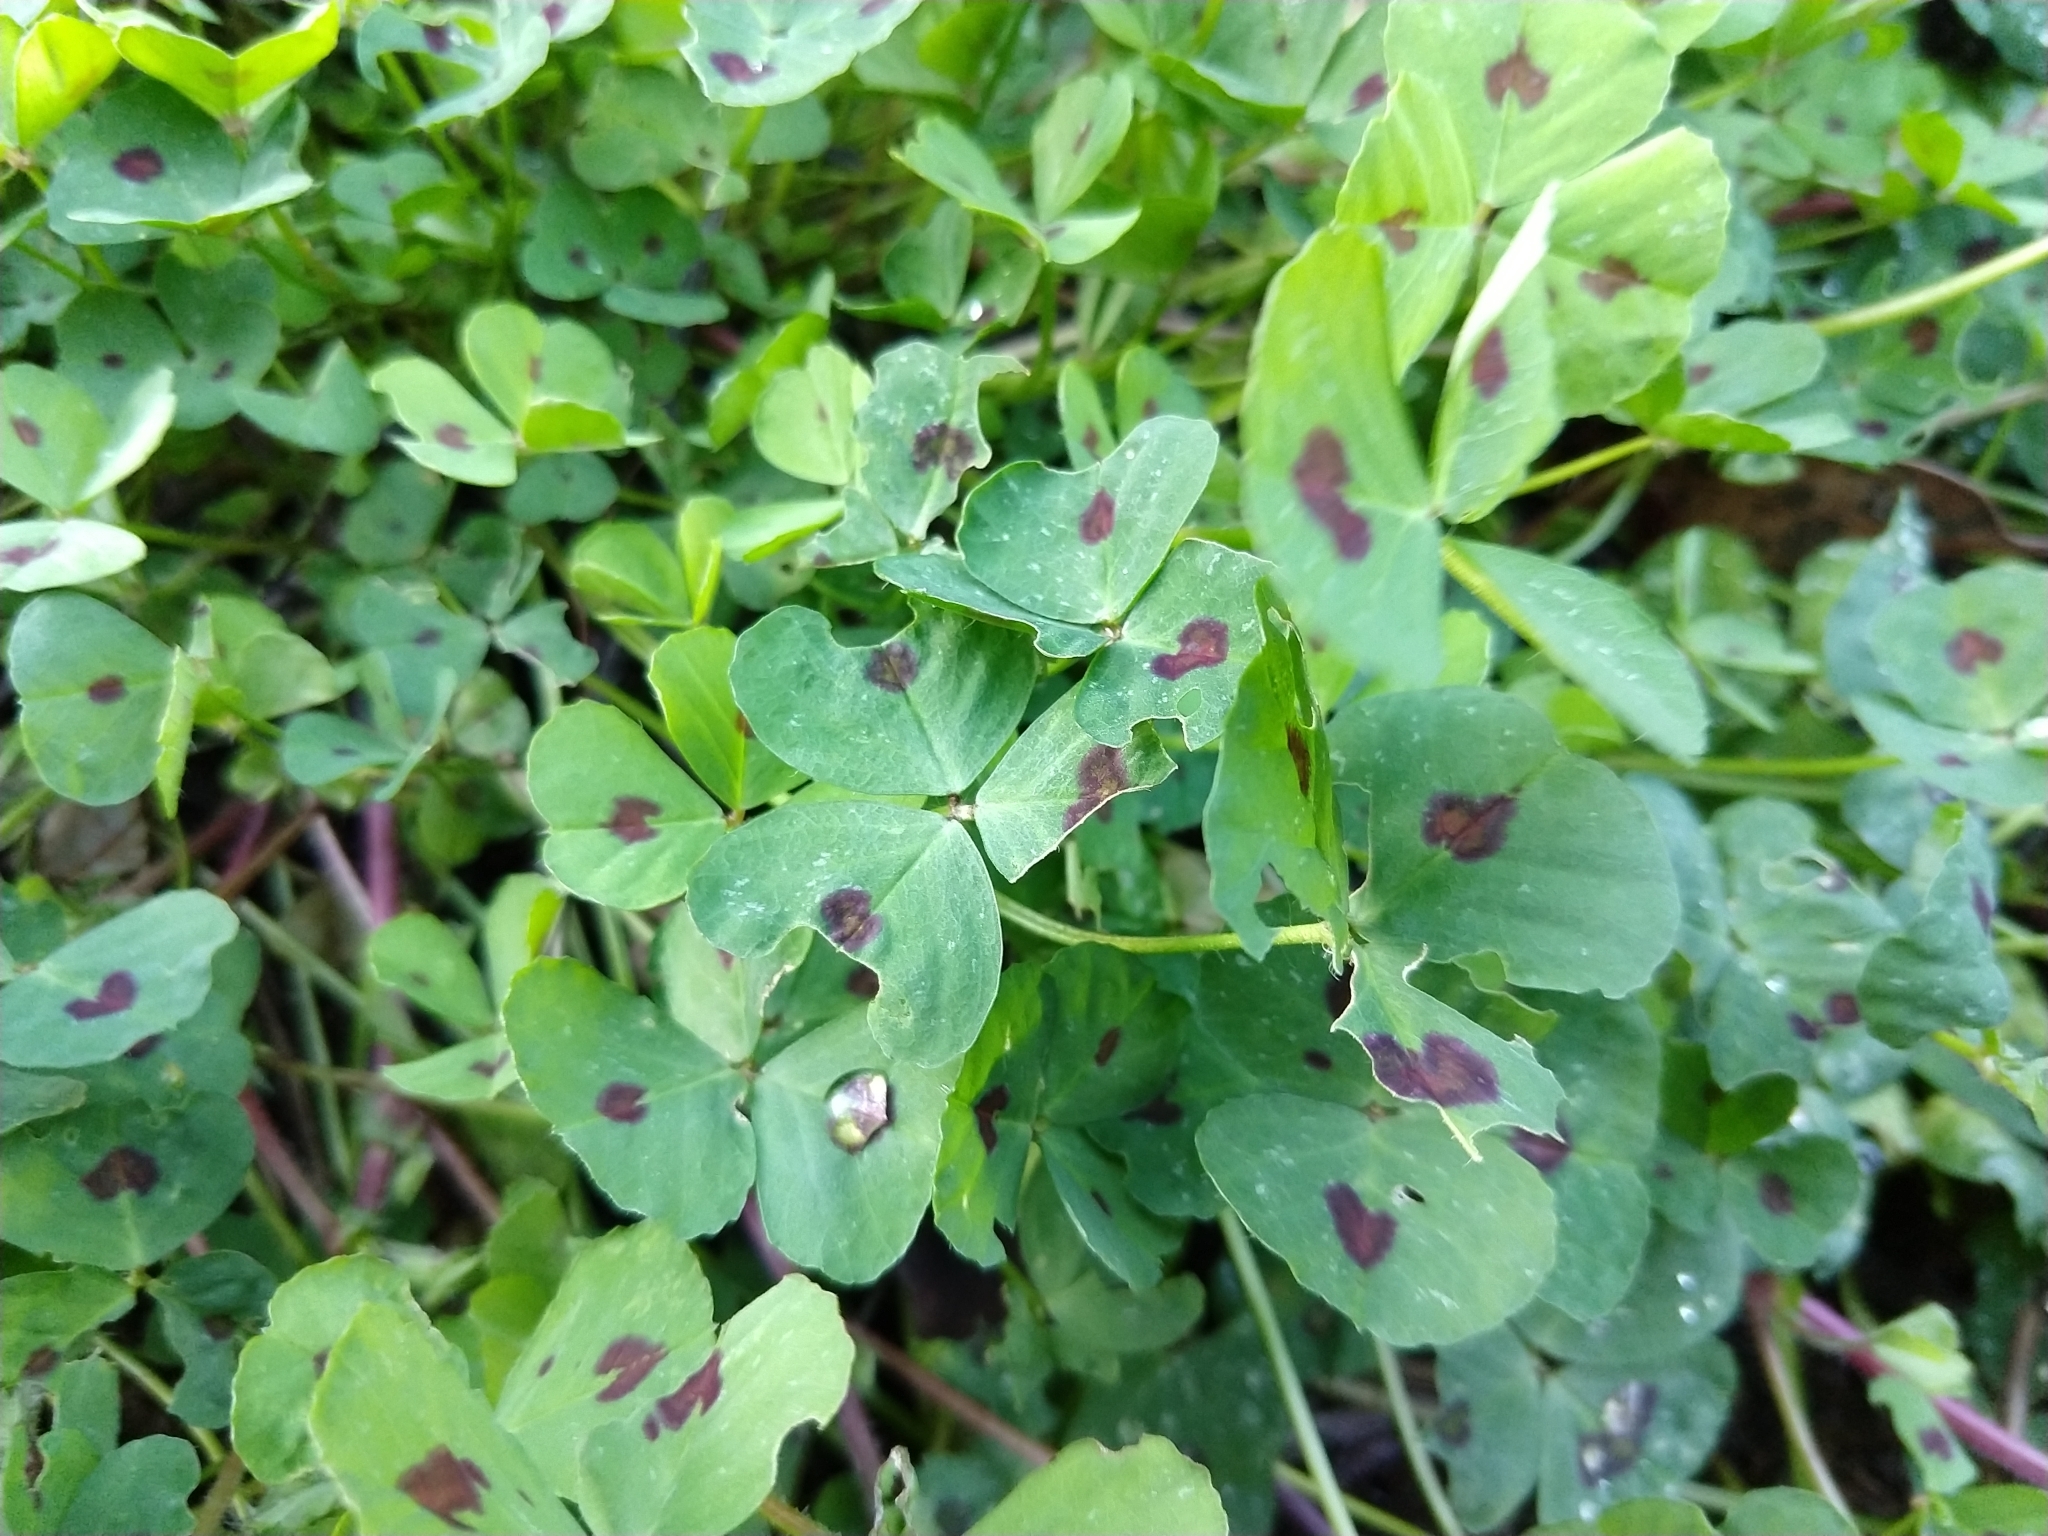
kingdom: Plantae
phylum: Tracheophyta
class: Magnoliopsida
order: Fabales
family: Fabaceae
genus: Medicago
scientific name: Medicago arabica
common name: Spotted medick
